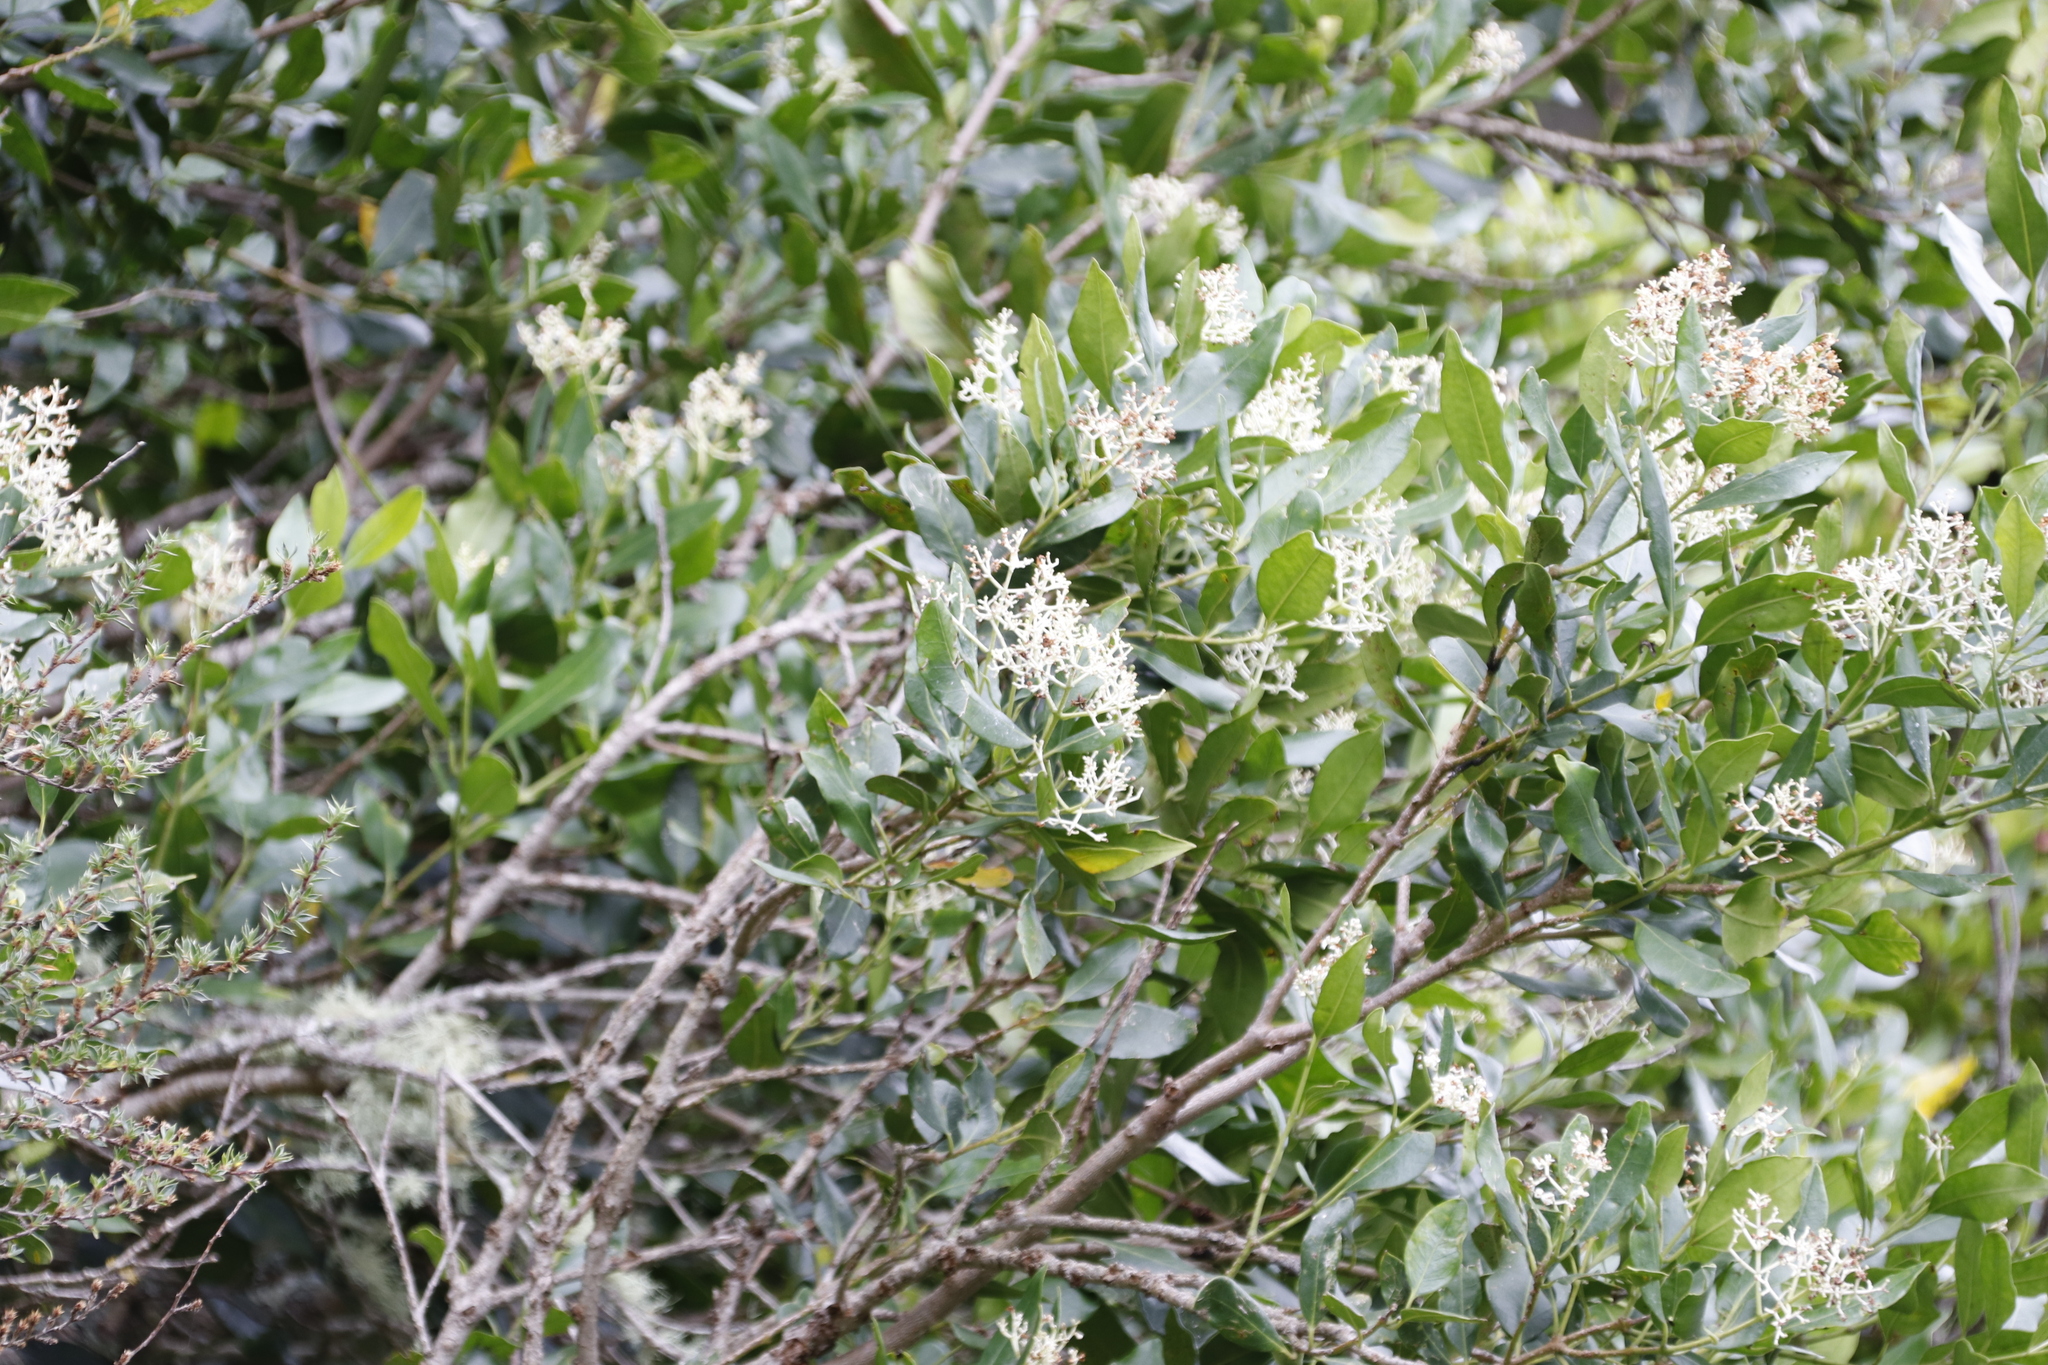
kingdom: Plantae
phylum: Tracheophyta
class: Magnoliopsida
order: Lamiales
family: Oleaceae
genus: Olea
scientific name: Olea capensis
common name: Black ironwood
